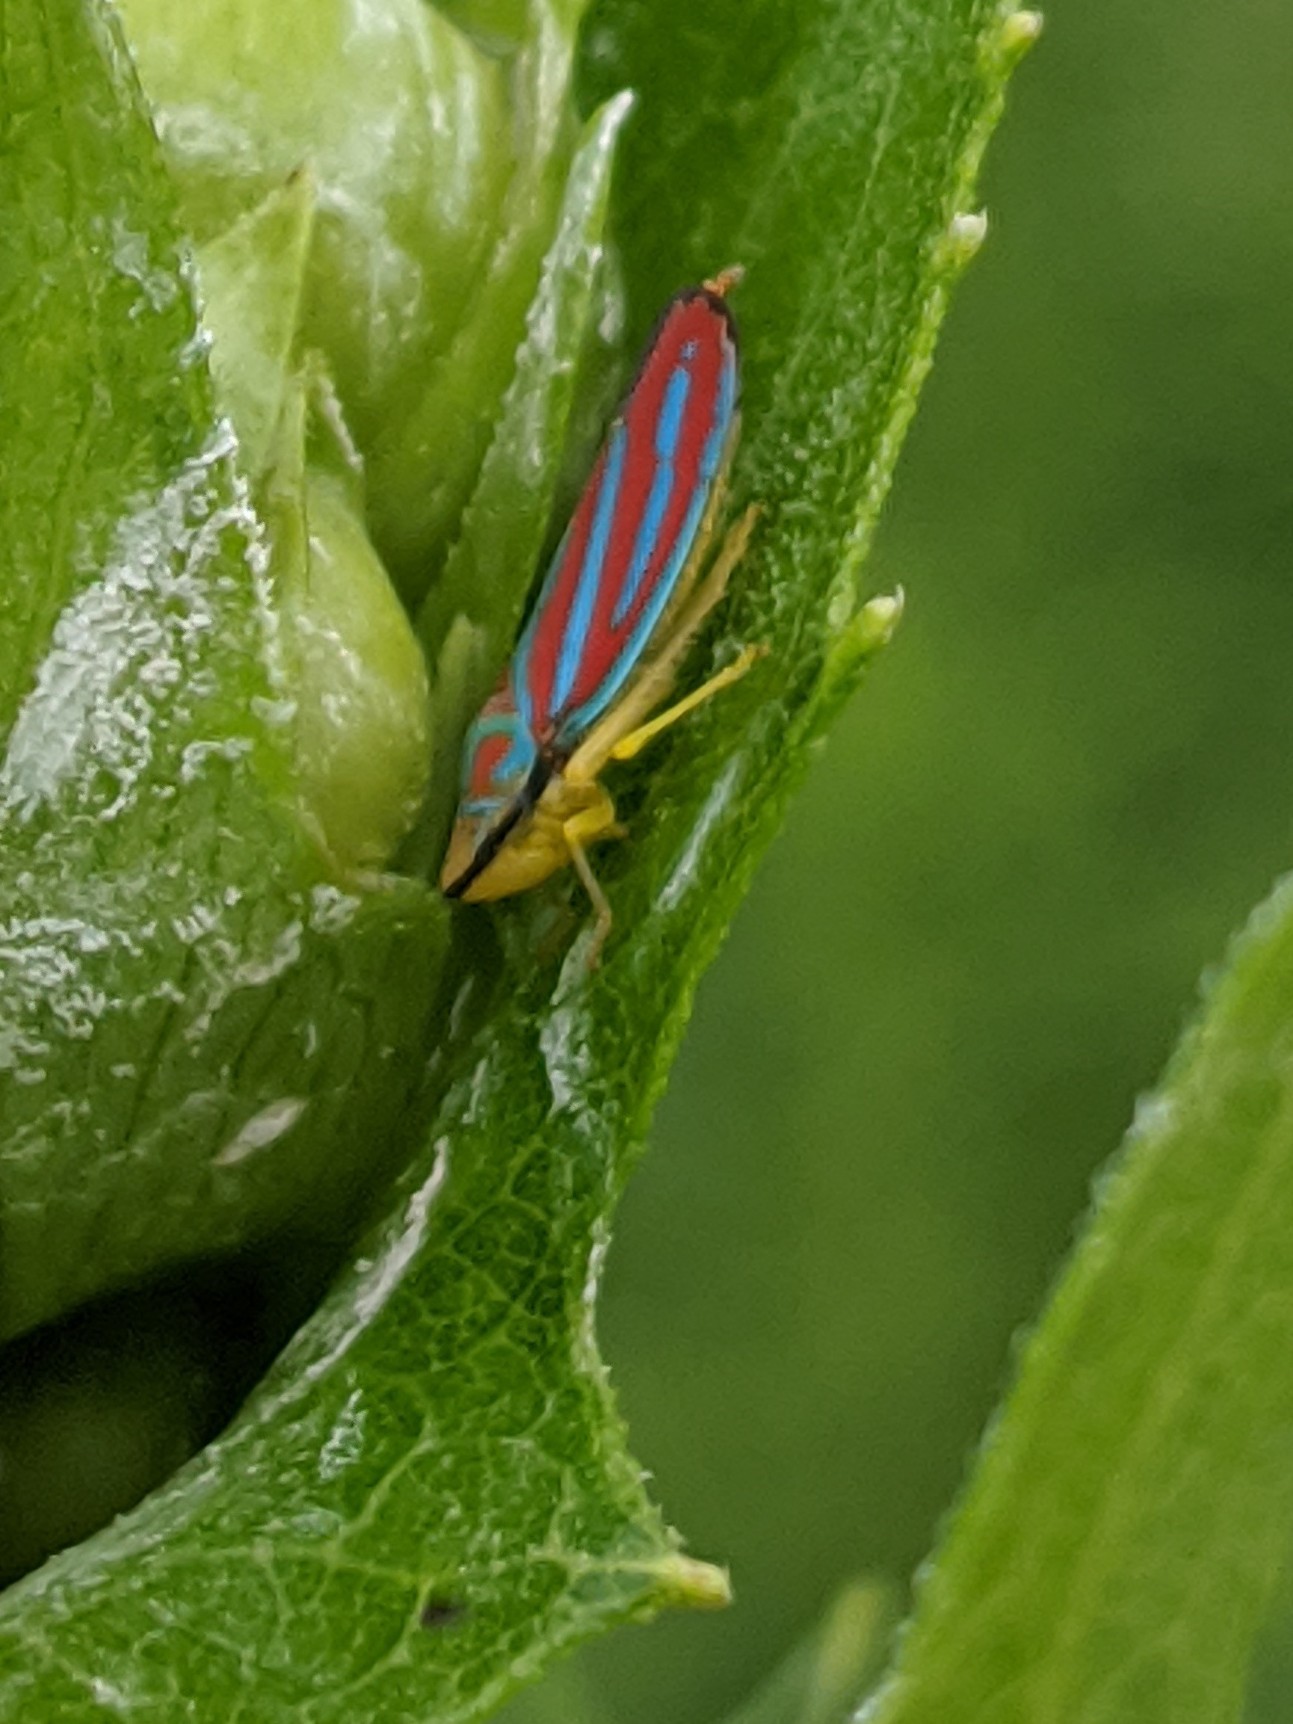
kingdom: Animalia
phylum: Arthropoda
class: Insecta
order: Hemiptera
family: Cicadellidae
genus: Graphocephala
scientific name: Graphocephala coccinea
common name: Candy-striped leafhopper
